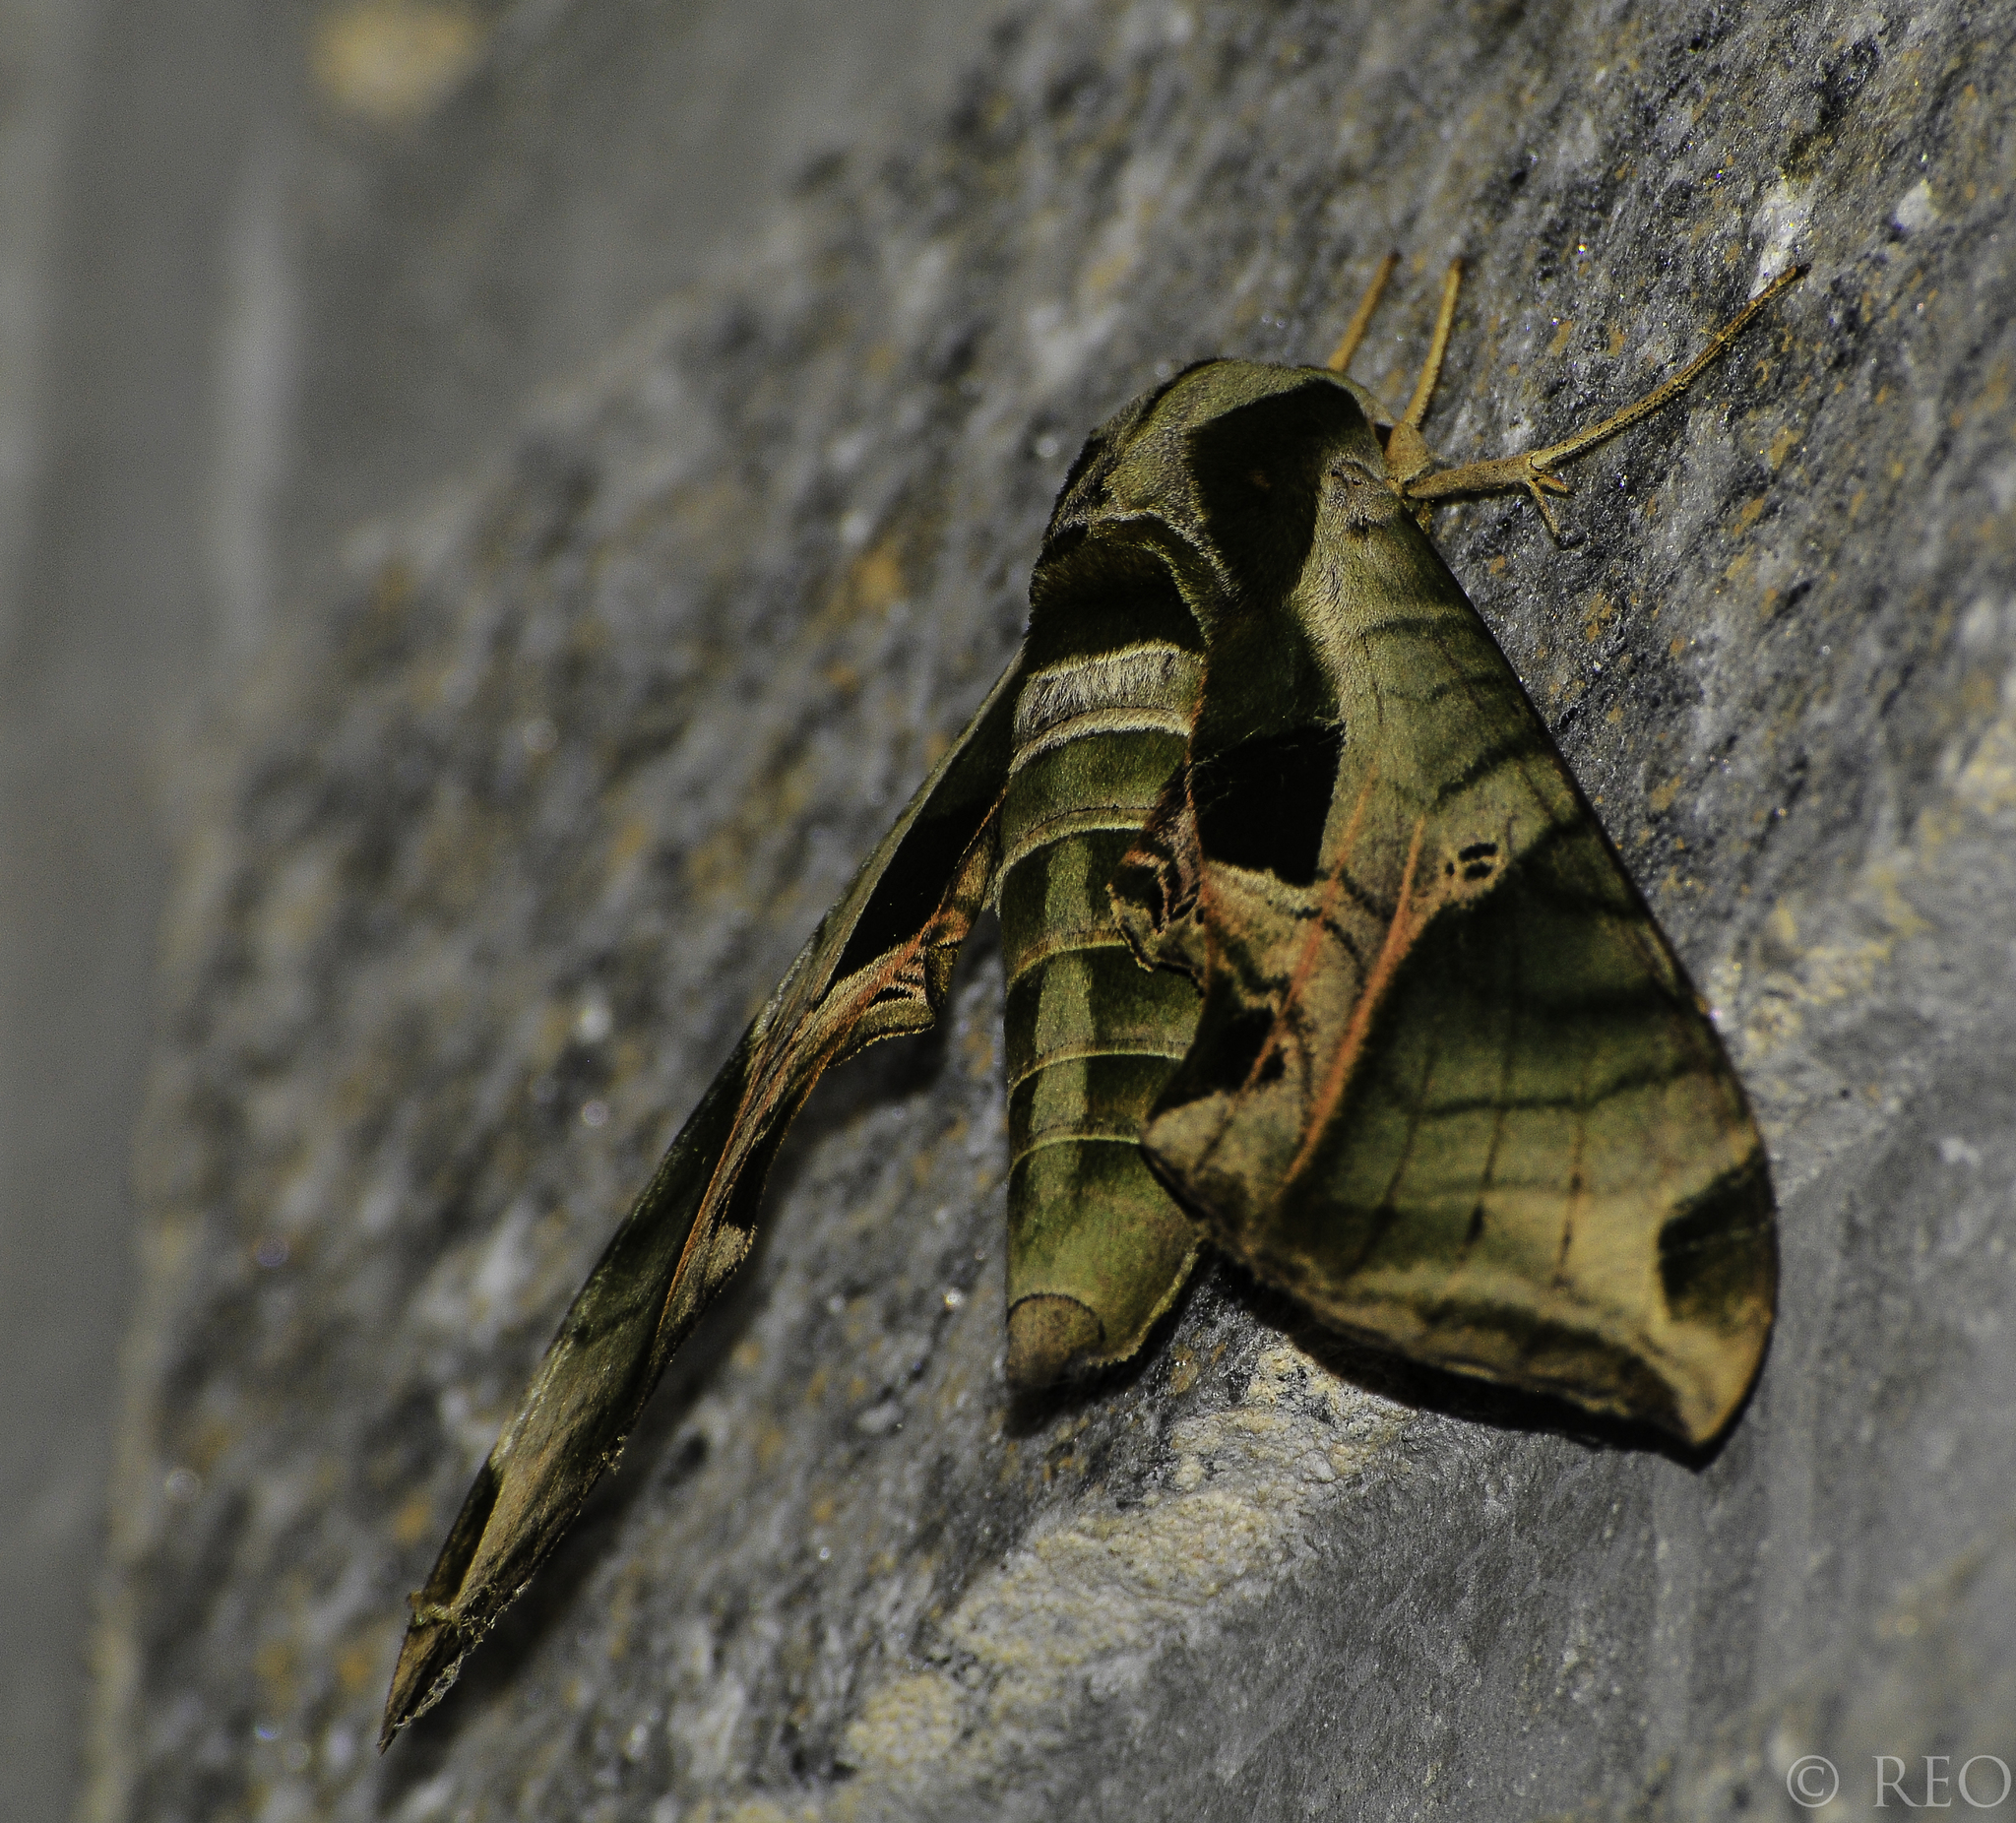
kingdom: Animalia
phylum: Arthropoda
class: Insecta
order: Lepidoptera
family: Sphingidae
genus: Eumorpha
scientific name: Eumorpha pandorus
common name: Pandora sphinx
